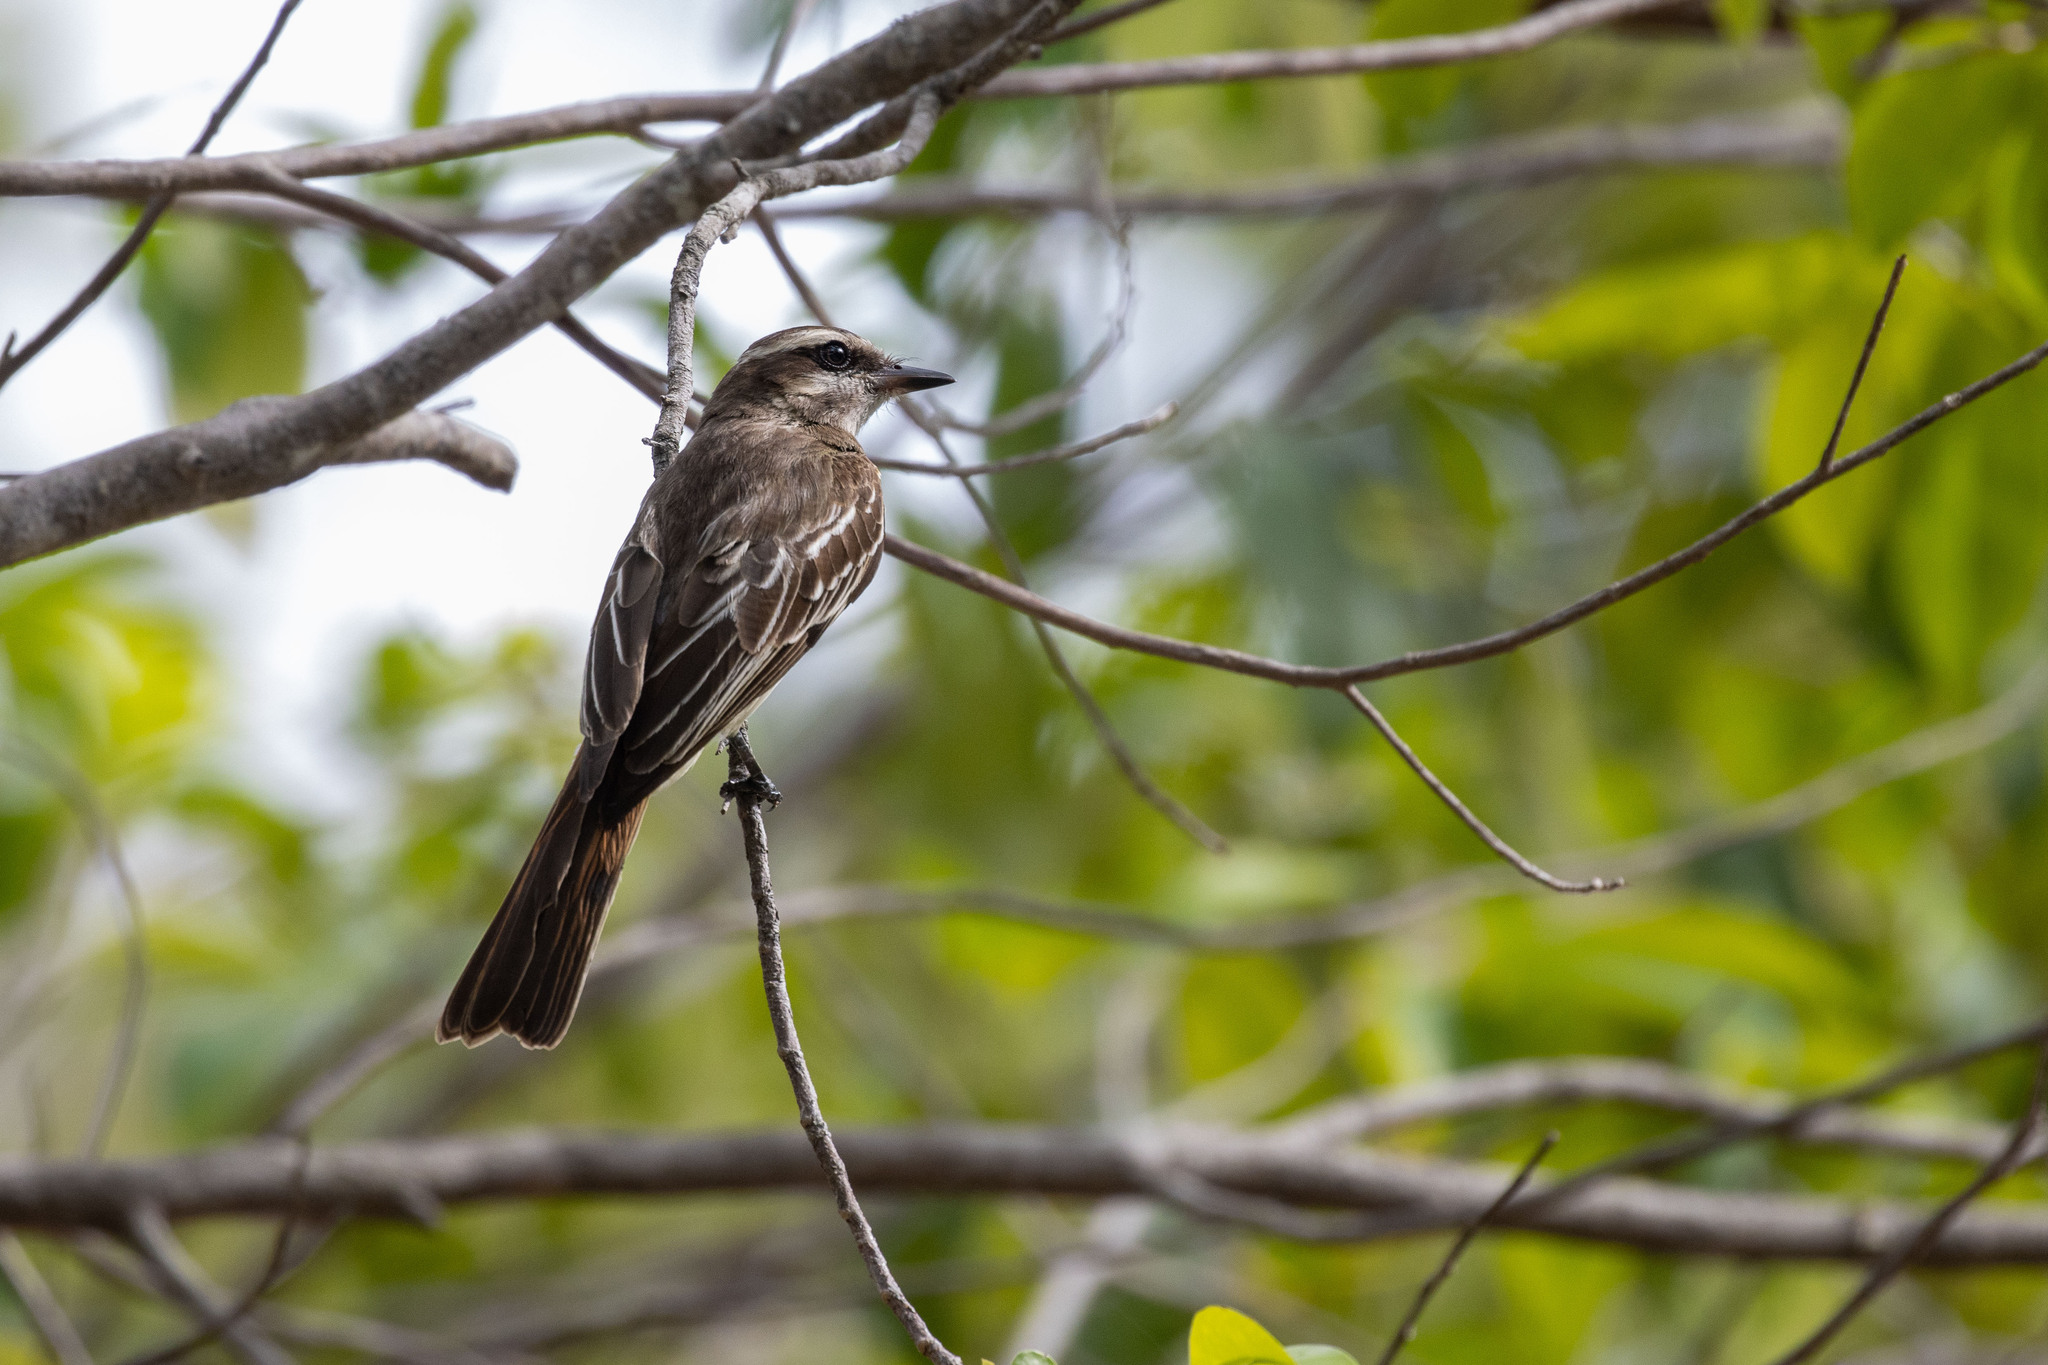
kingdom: Animalia
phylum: Chordata
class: Aves
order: Passeriformes
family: Tyrannidae
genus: Empidonomus
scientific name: Empidonomus varius
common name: Variegated flycatcher
